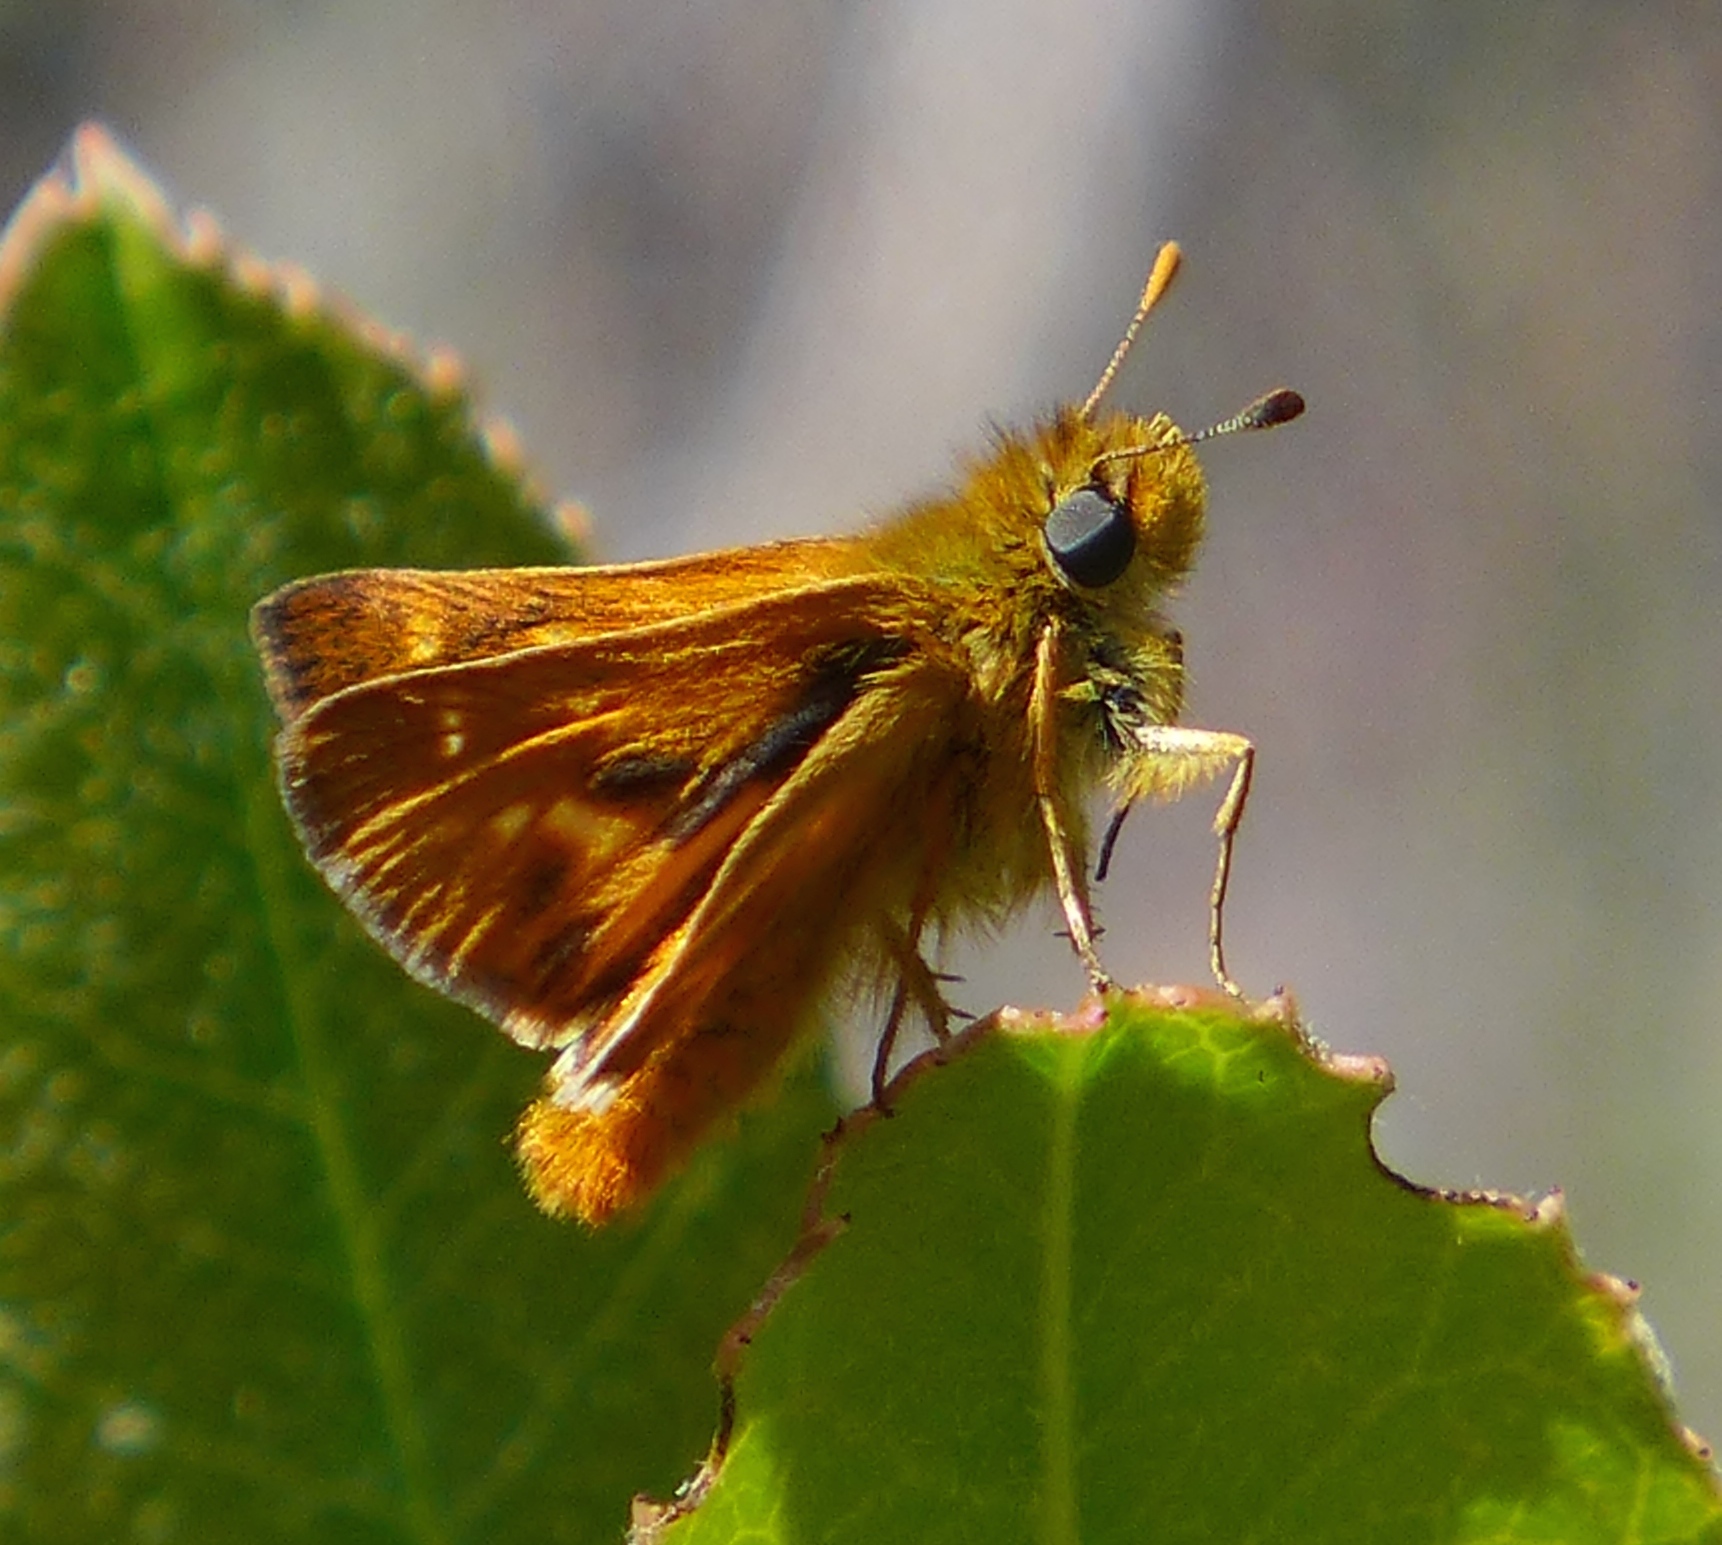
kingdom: Animalia
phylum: Arthropoda
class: Insecta
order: Lepidoptera
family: Hesperiidae
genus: Ochlodes
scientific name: Ochlodes agricola
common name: Rural skipper
